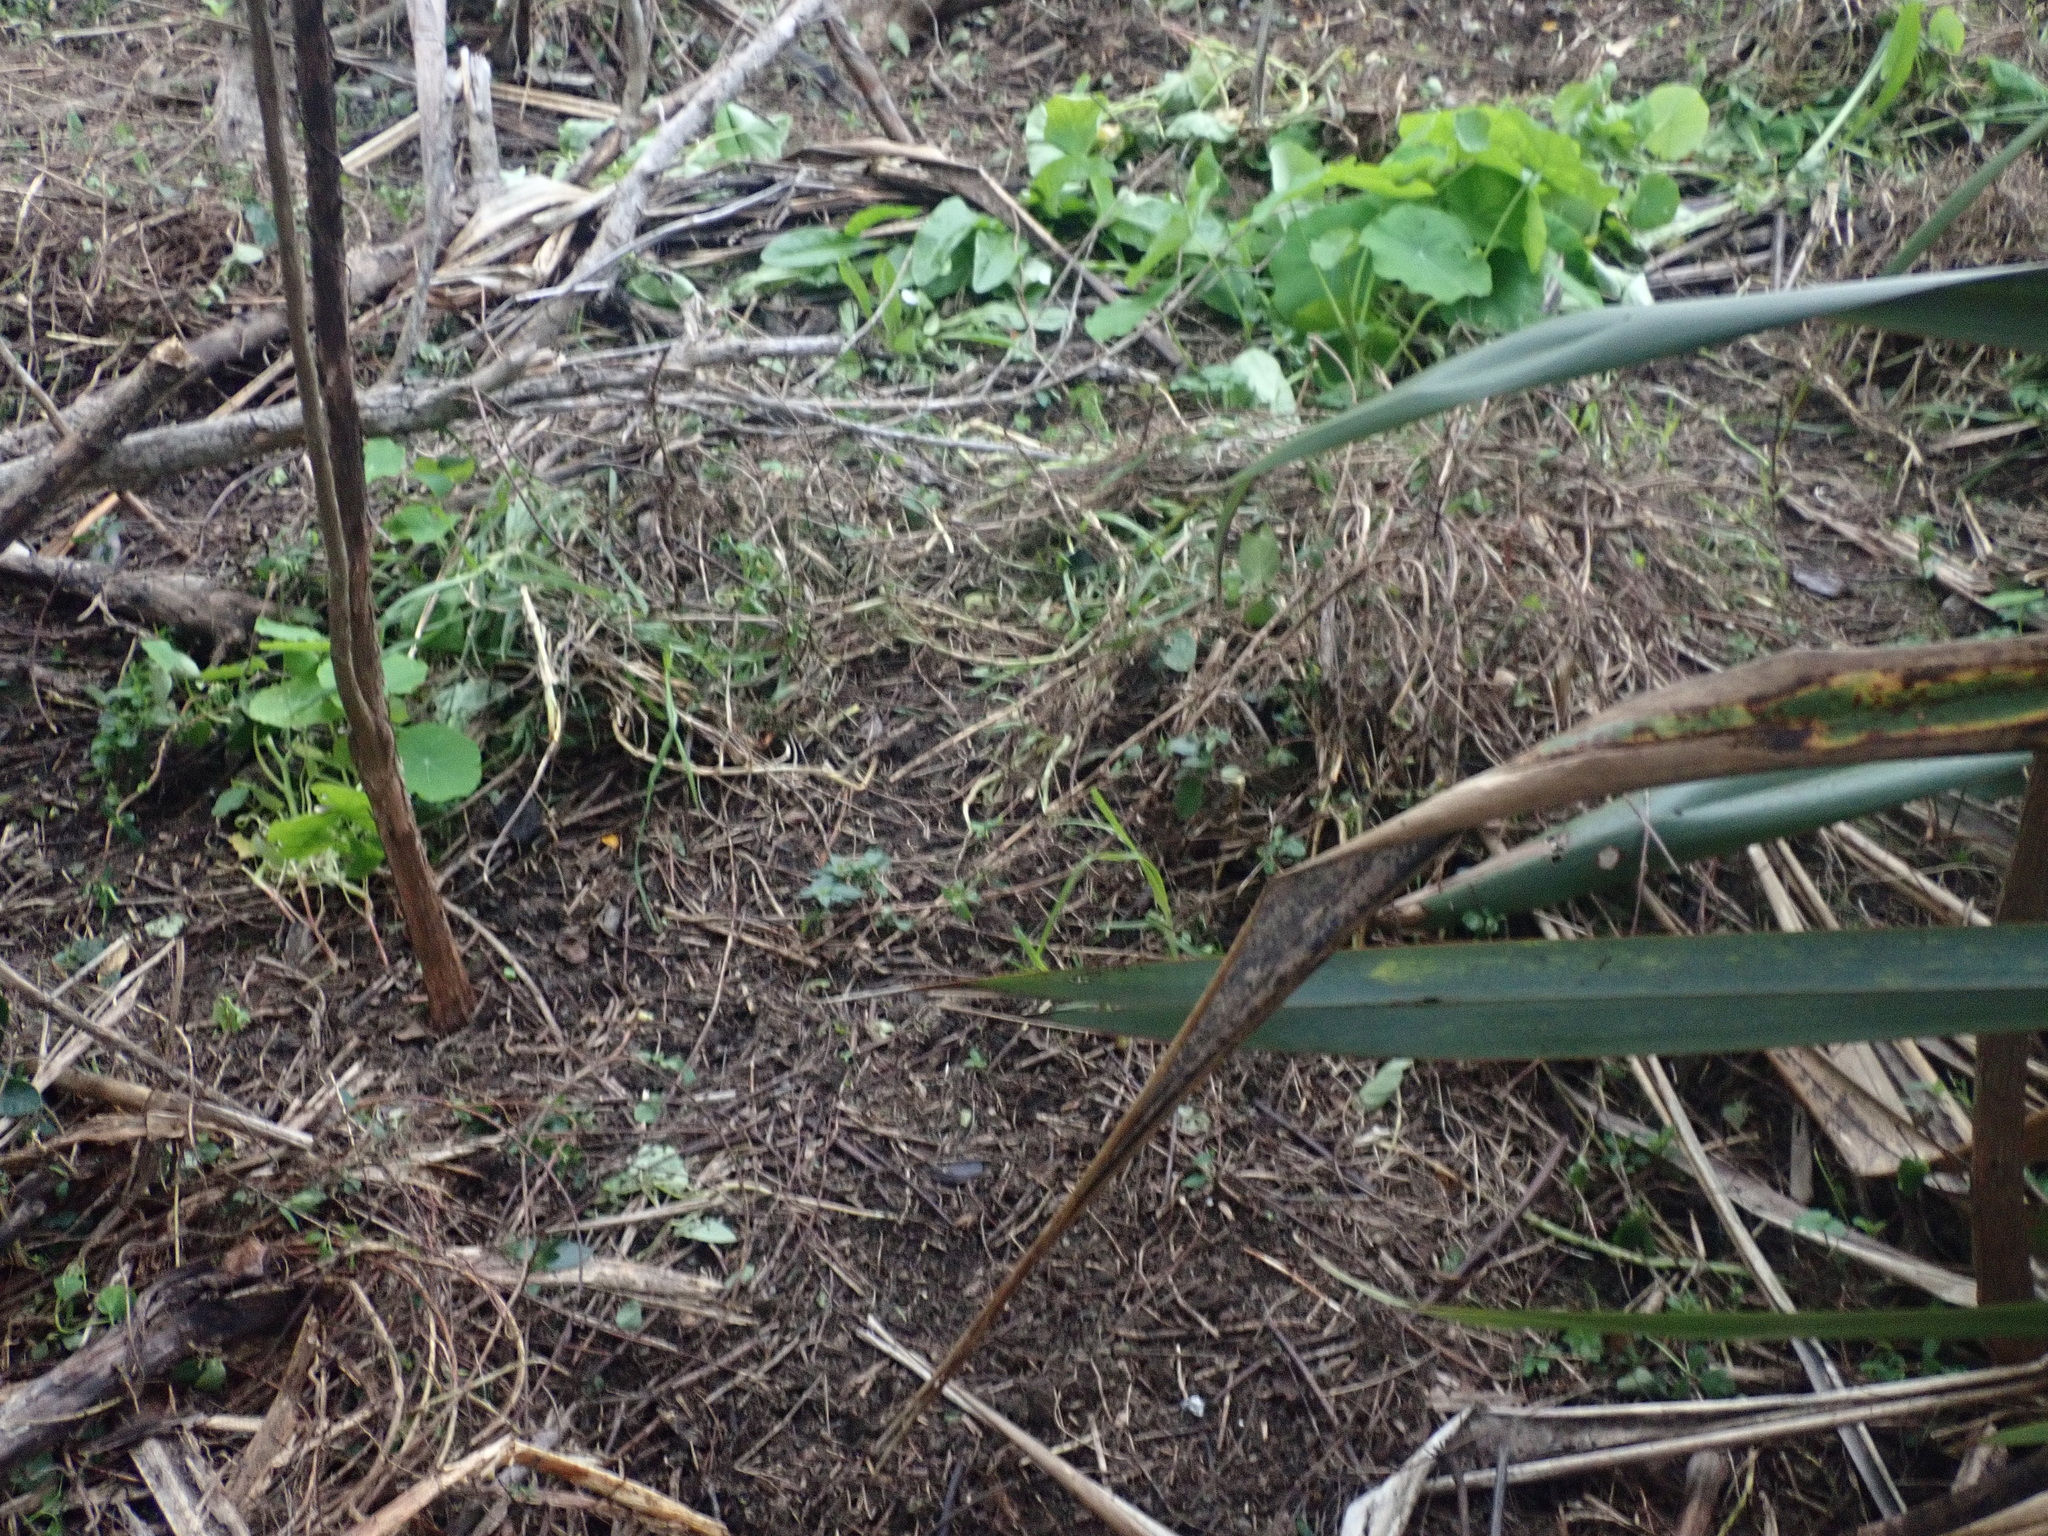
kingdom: Plantae
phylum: Tracheophyta
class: Magnoliopsida
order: Brassicales
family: Tropaeolaceae
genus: Tropaeolum
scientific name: Tropaeolum majus
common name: Nasturtium
